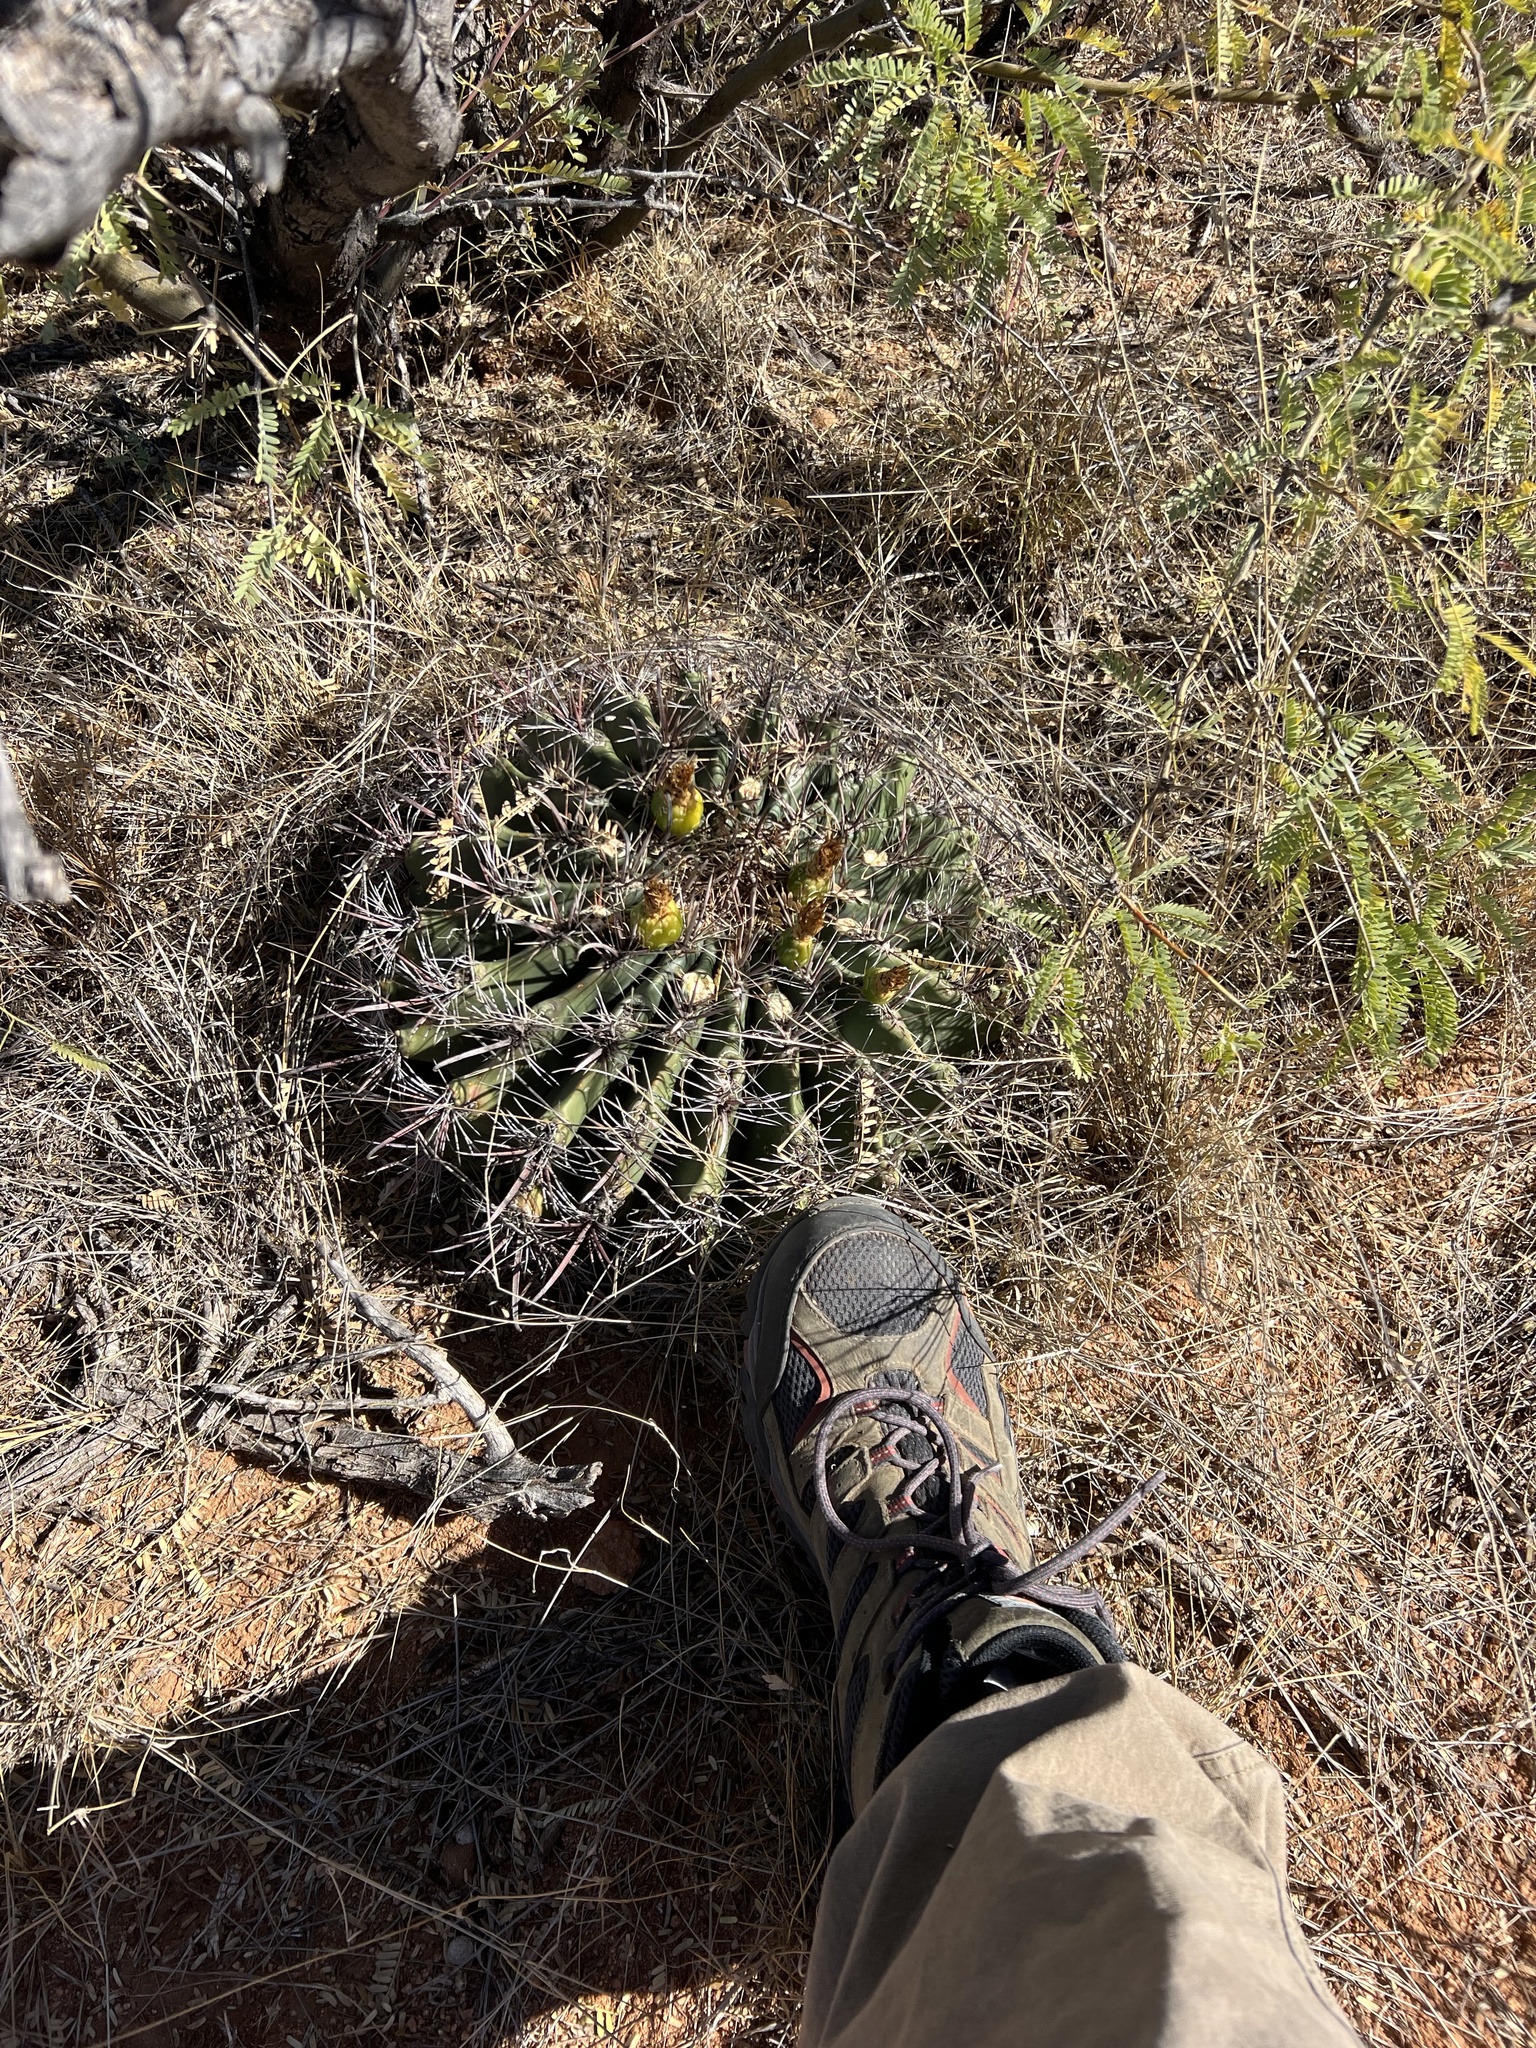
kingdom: Plantae
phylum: Tracheophyta
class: Magnoliopsida
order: Caryophyllales
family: Cactaceae
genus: Ferocactus
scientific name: Ferocactus wislizeni
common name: Candy barrel cactus
